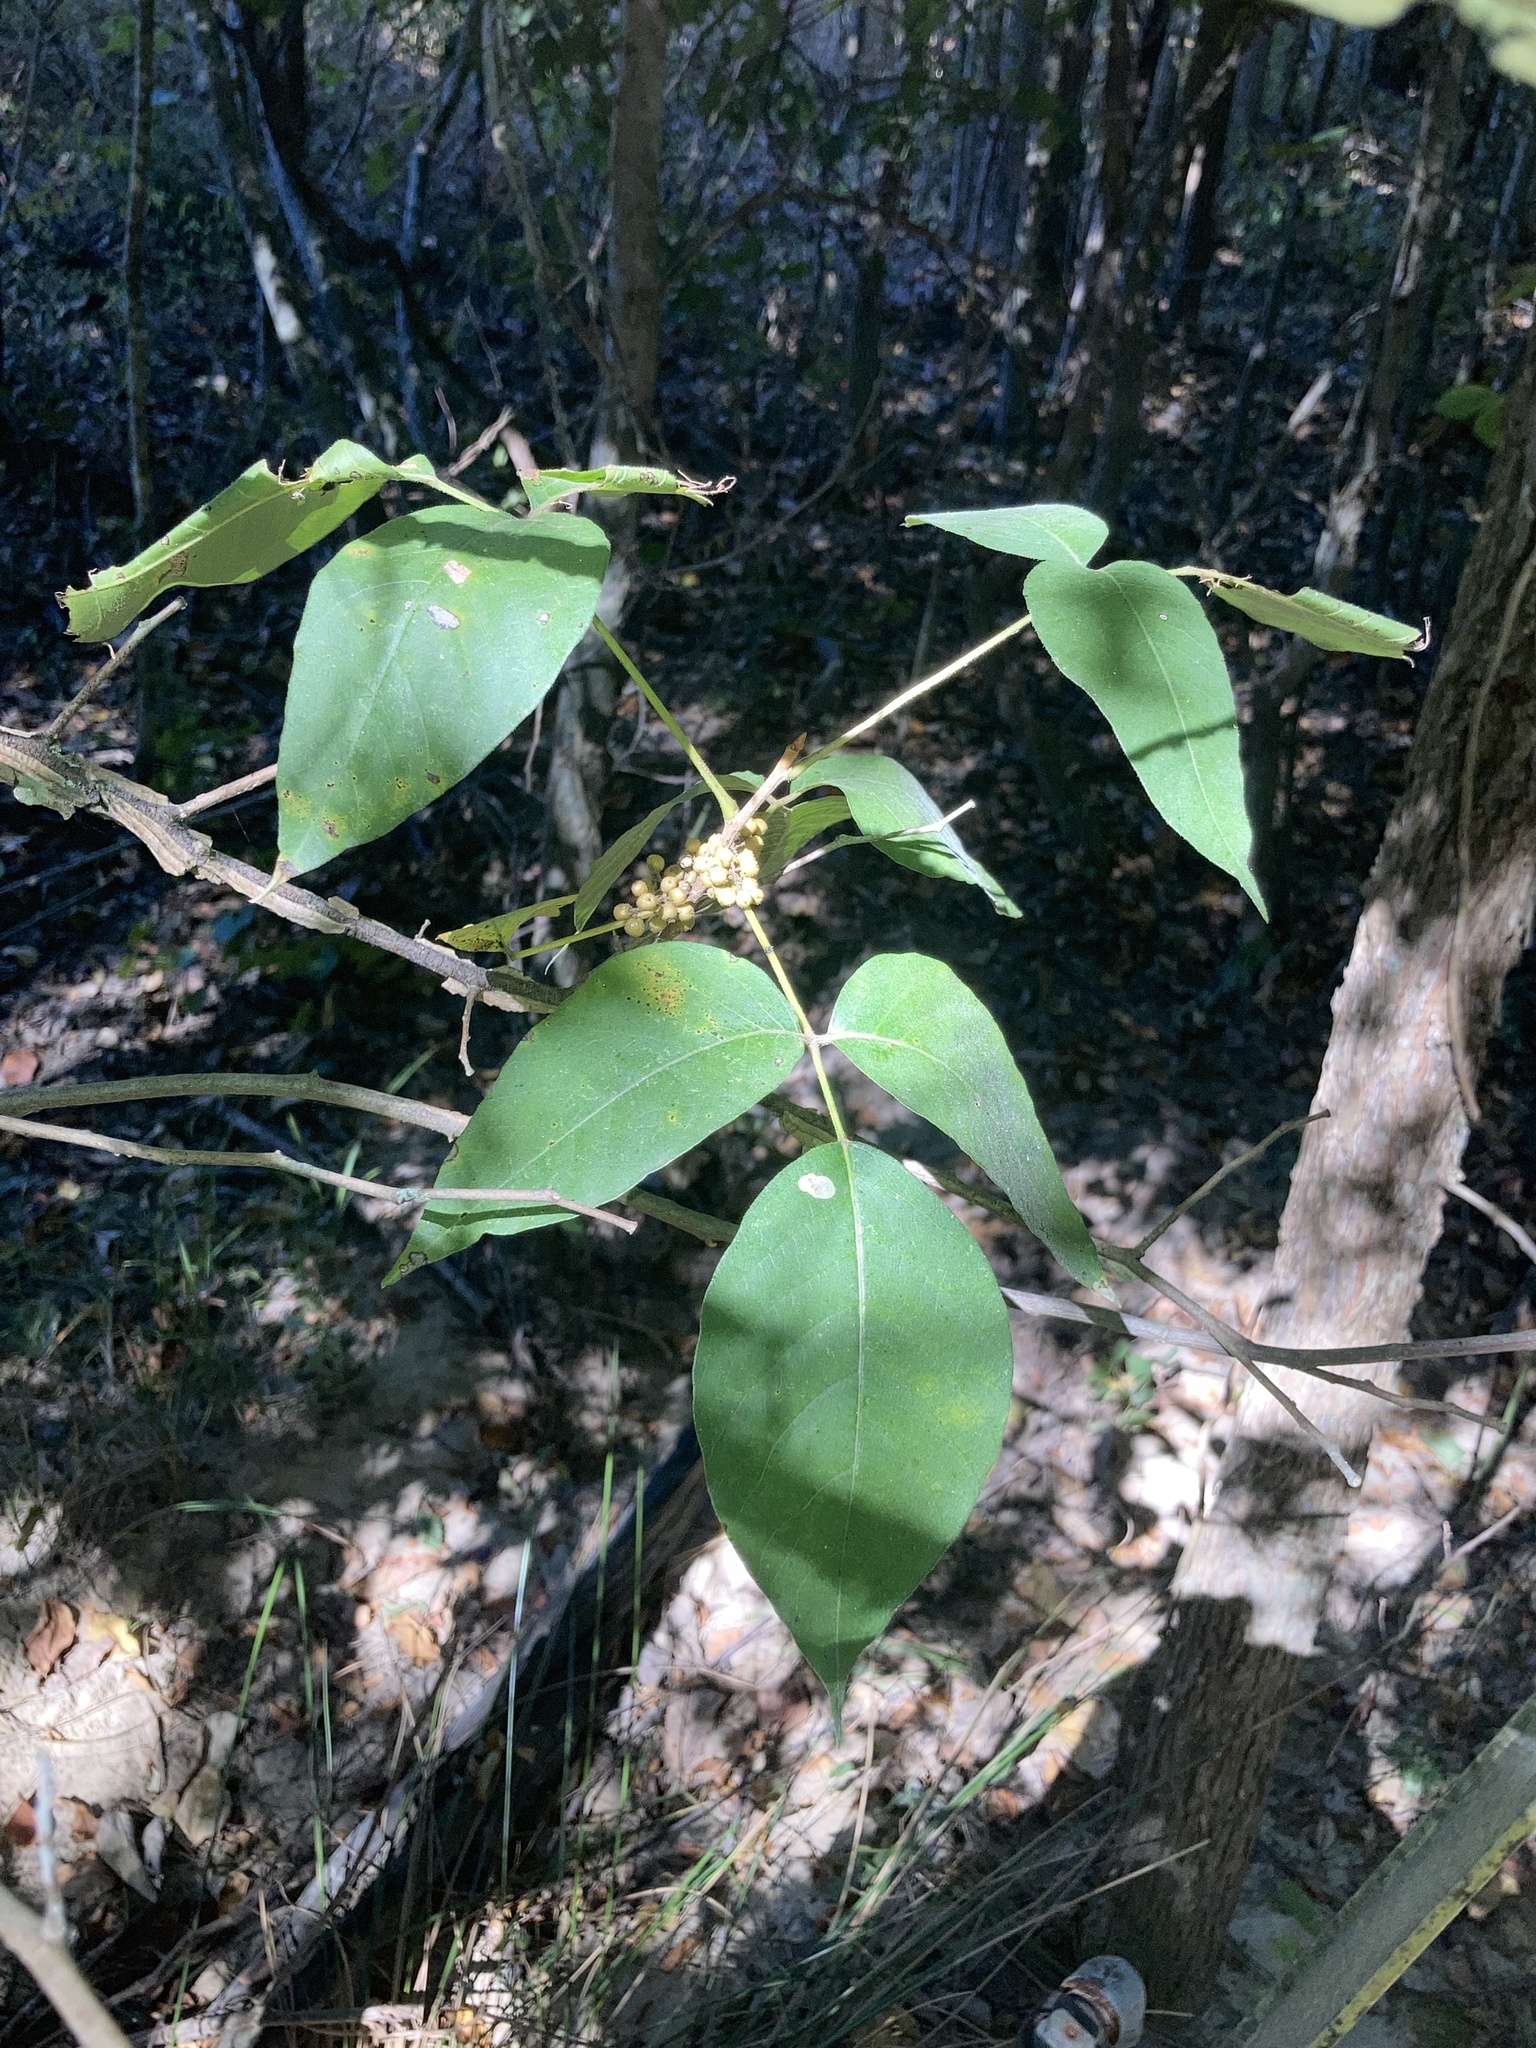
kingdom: Plantae
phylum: Tracheophyta
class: Magnoliopsida
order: Sapindales
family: Anacardiaceae
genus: Toxicodendron
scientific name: Toxicodendron radicans
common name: Poison ivy
